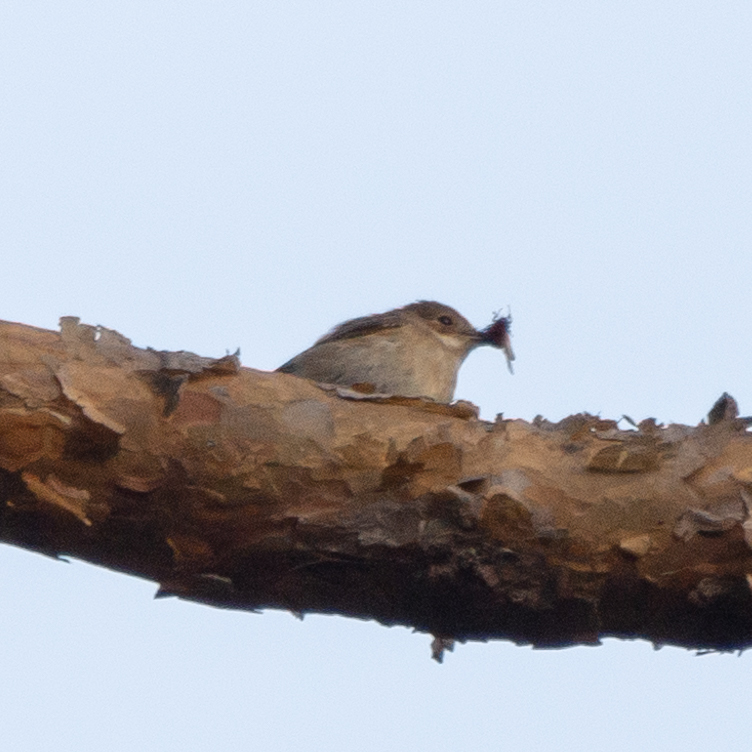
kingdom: Animalia
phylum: Chordata
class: Aves
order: Passeriformes
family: Muscicapidae
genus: Ficedula
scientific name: Ficedula hypoleuca
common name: European pied flycatcher
